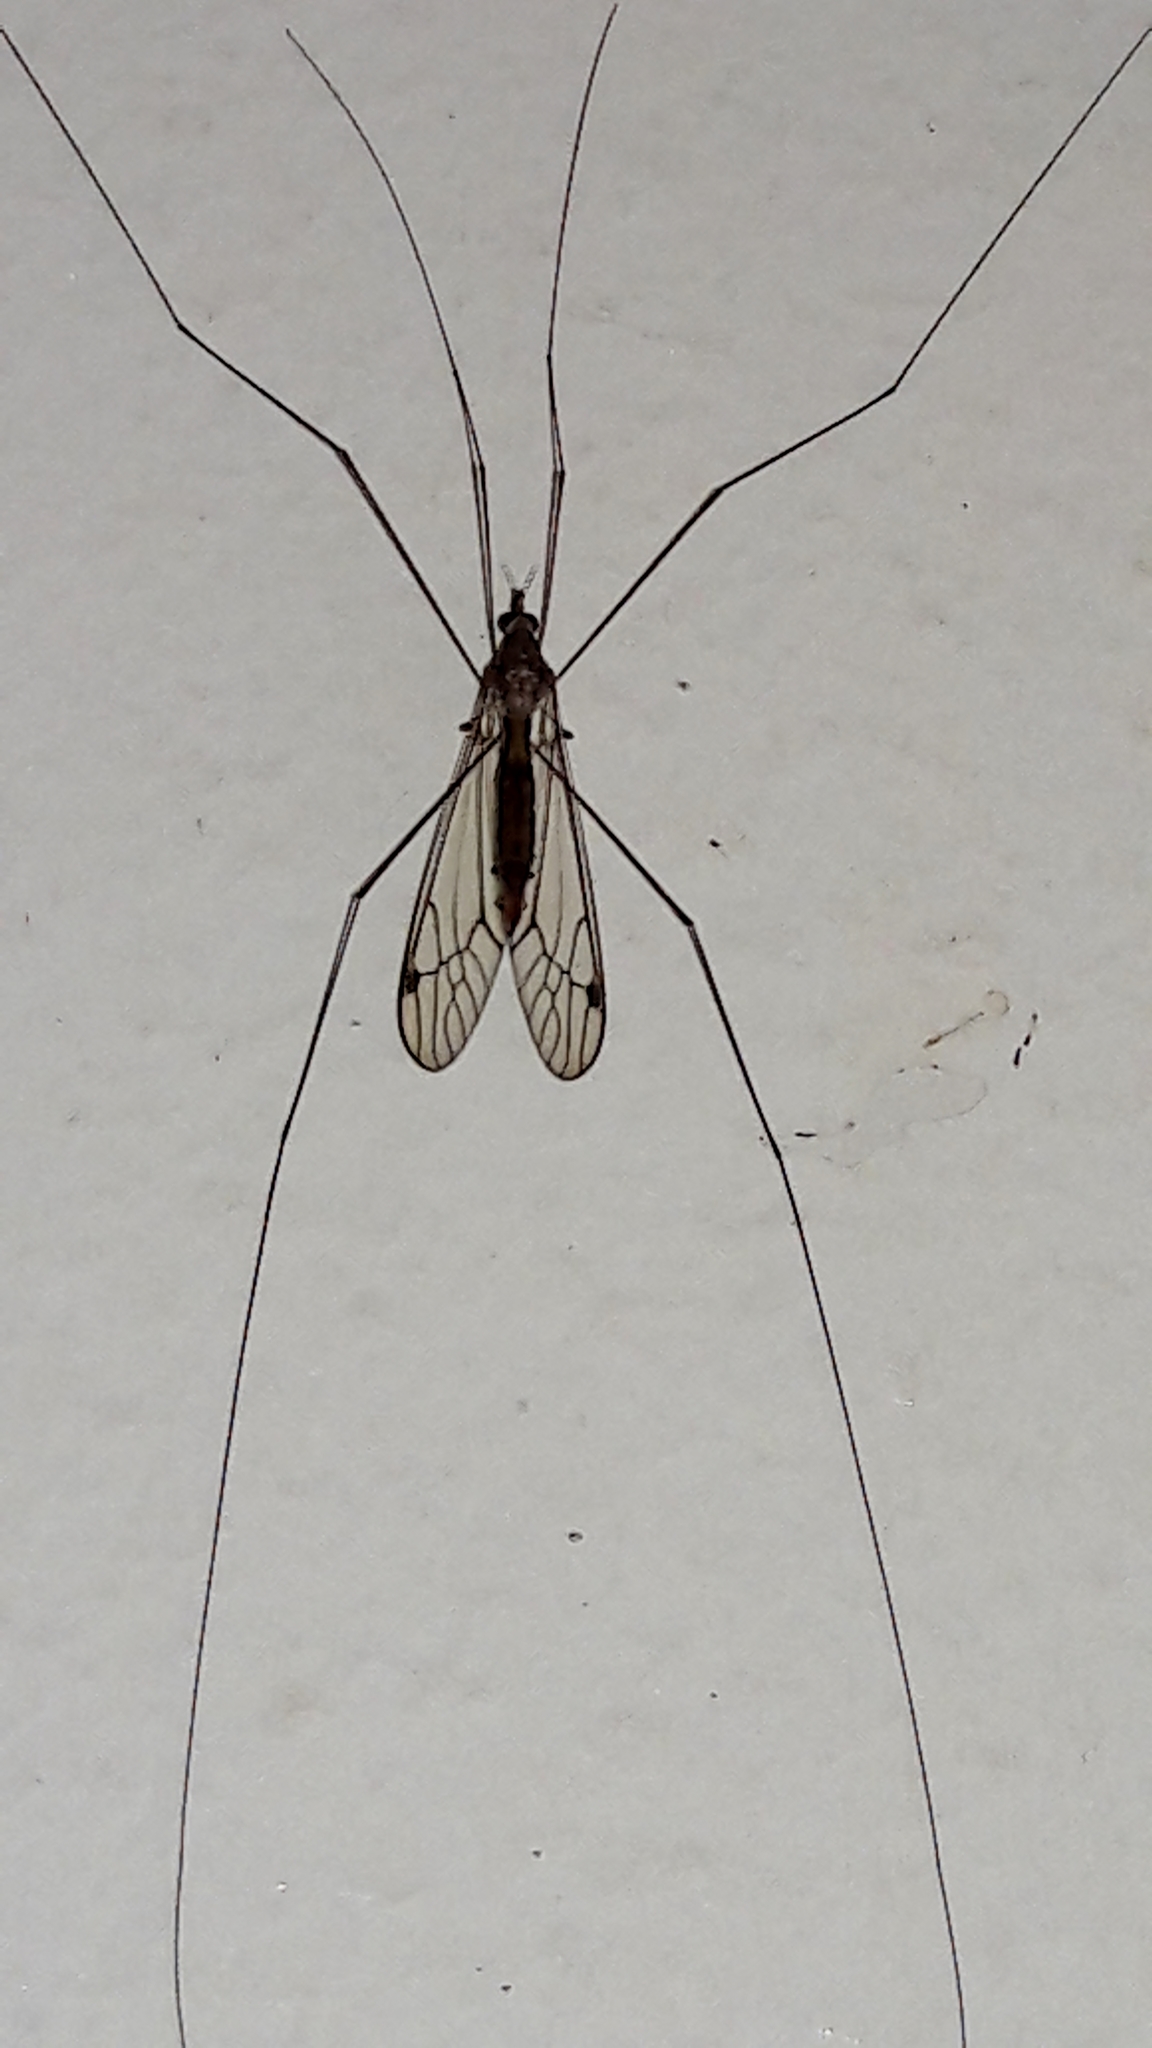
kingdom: Animalia
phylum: Arthropoda
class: Insecta
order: Diptera
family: Tipulidae
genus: Maekistocera
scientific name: Maekistocera longipennis
